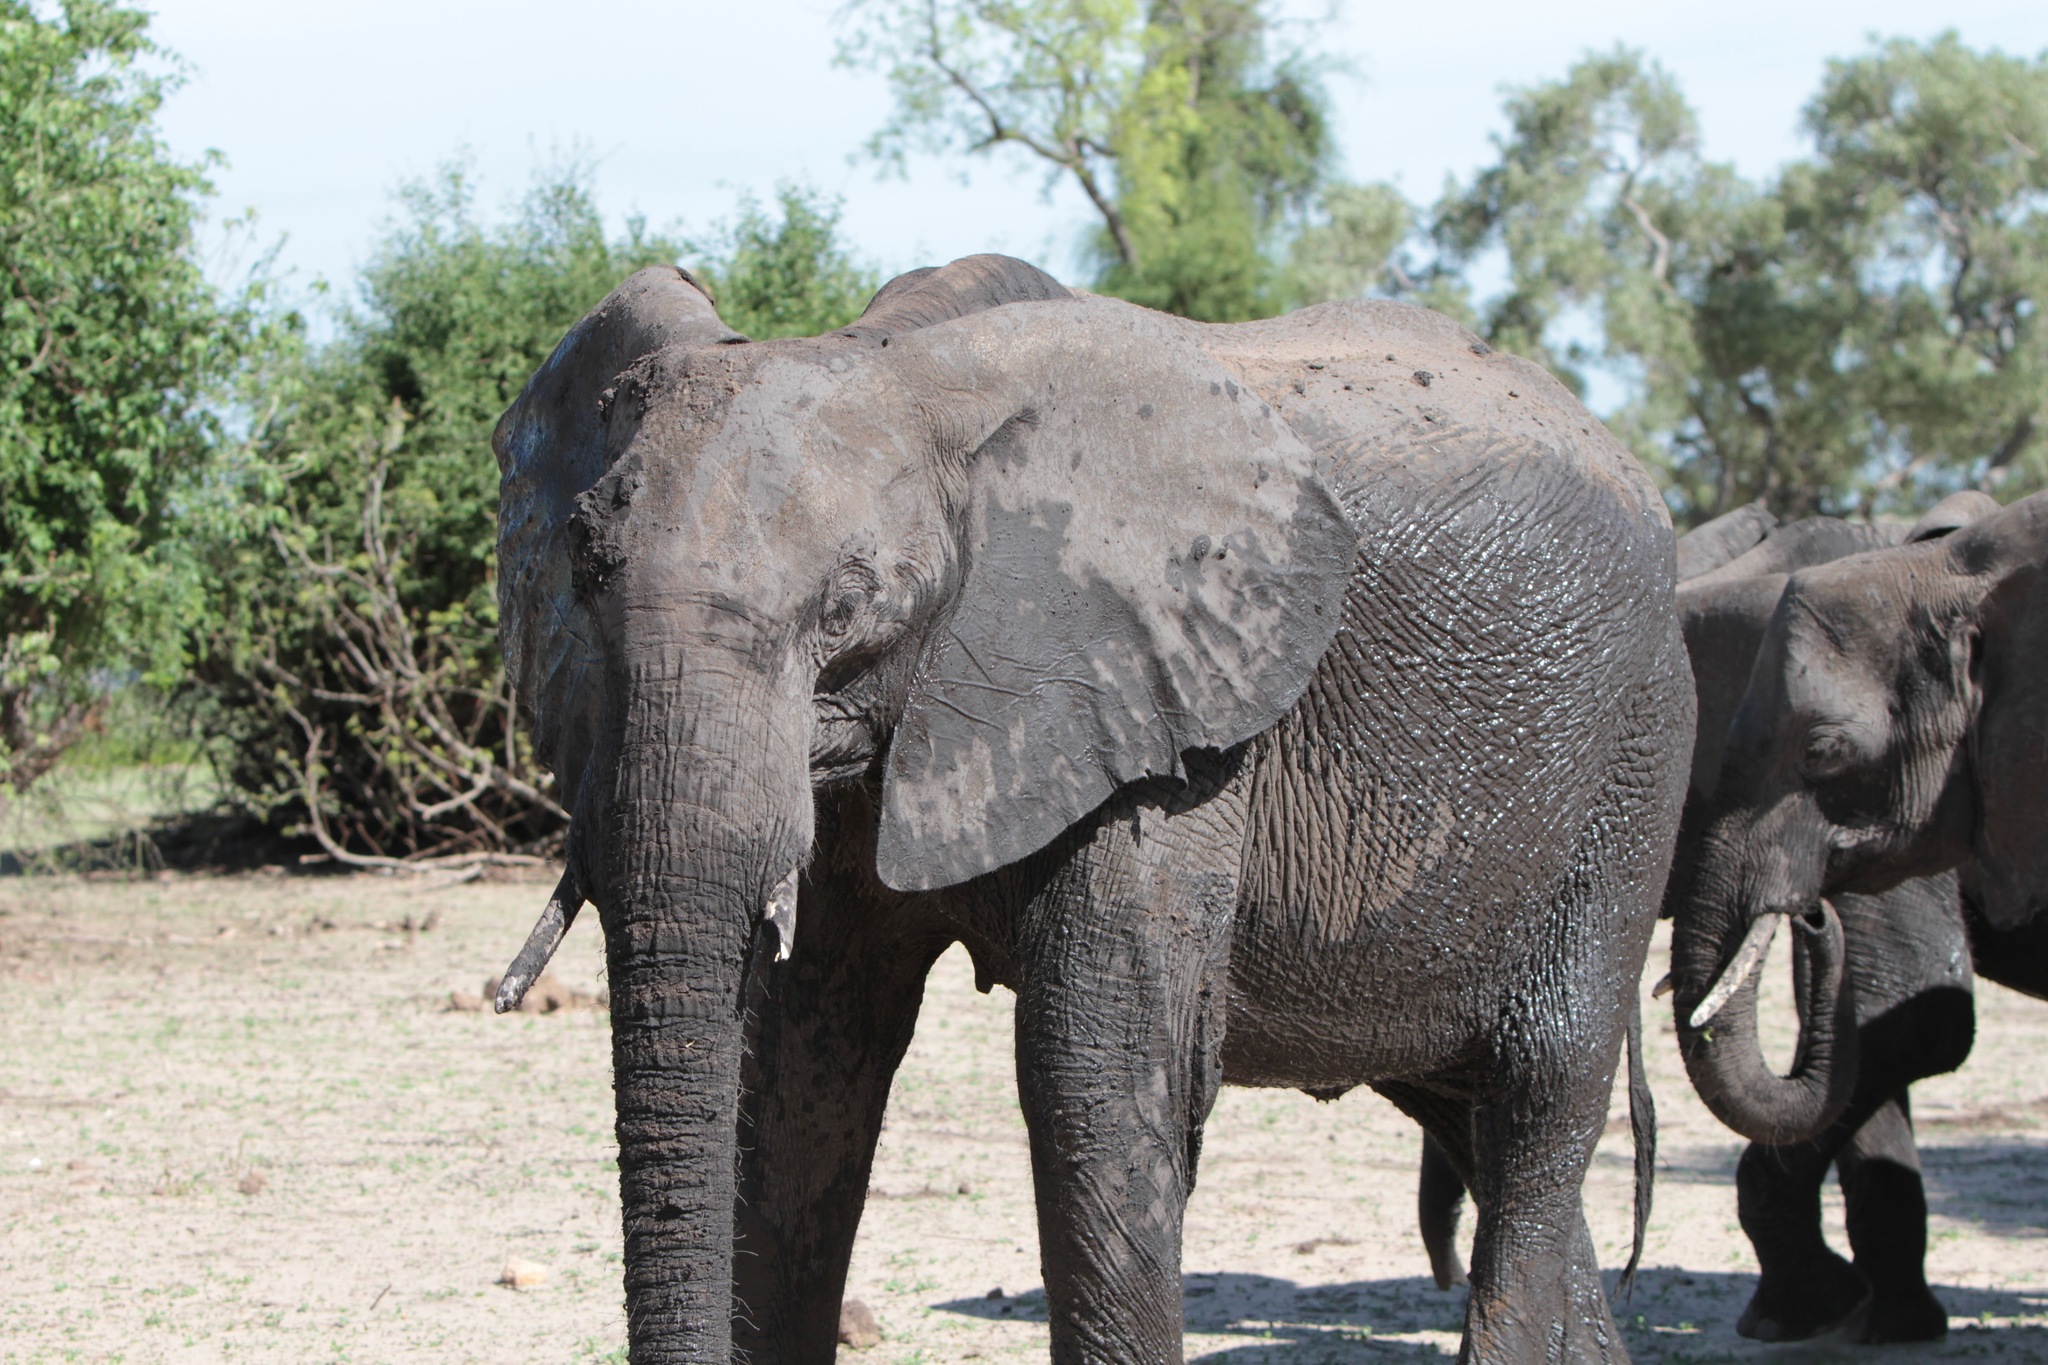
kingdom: Animalia
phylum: Chordata
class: Mammalia
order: Proboscidea
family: Elephantidae
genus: Loxodonta
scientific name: Loxodonta africana
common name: African elephant
